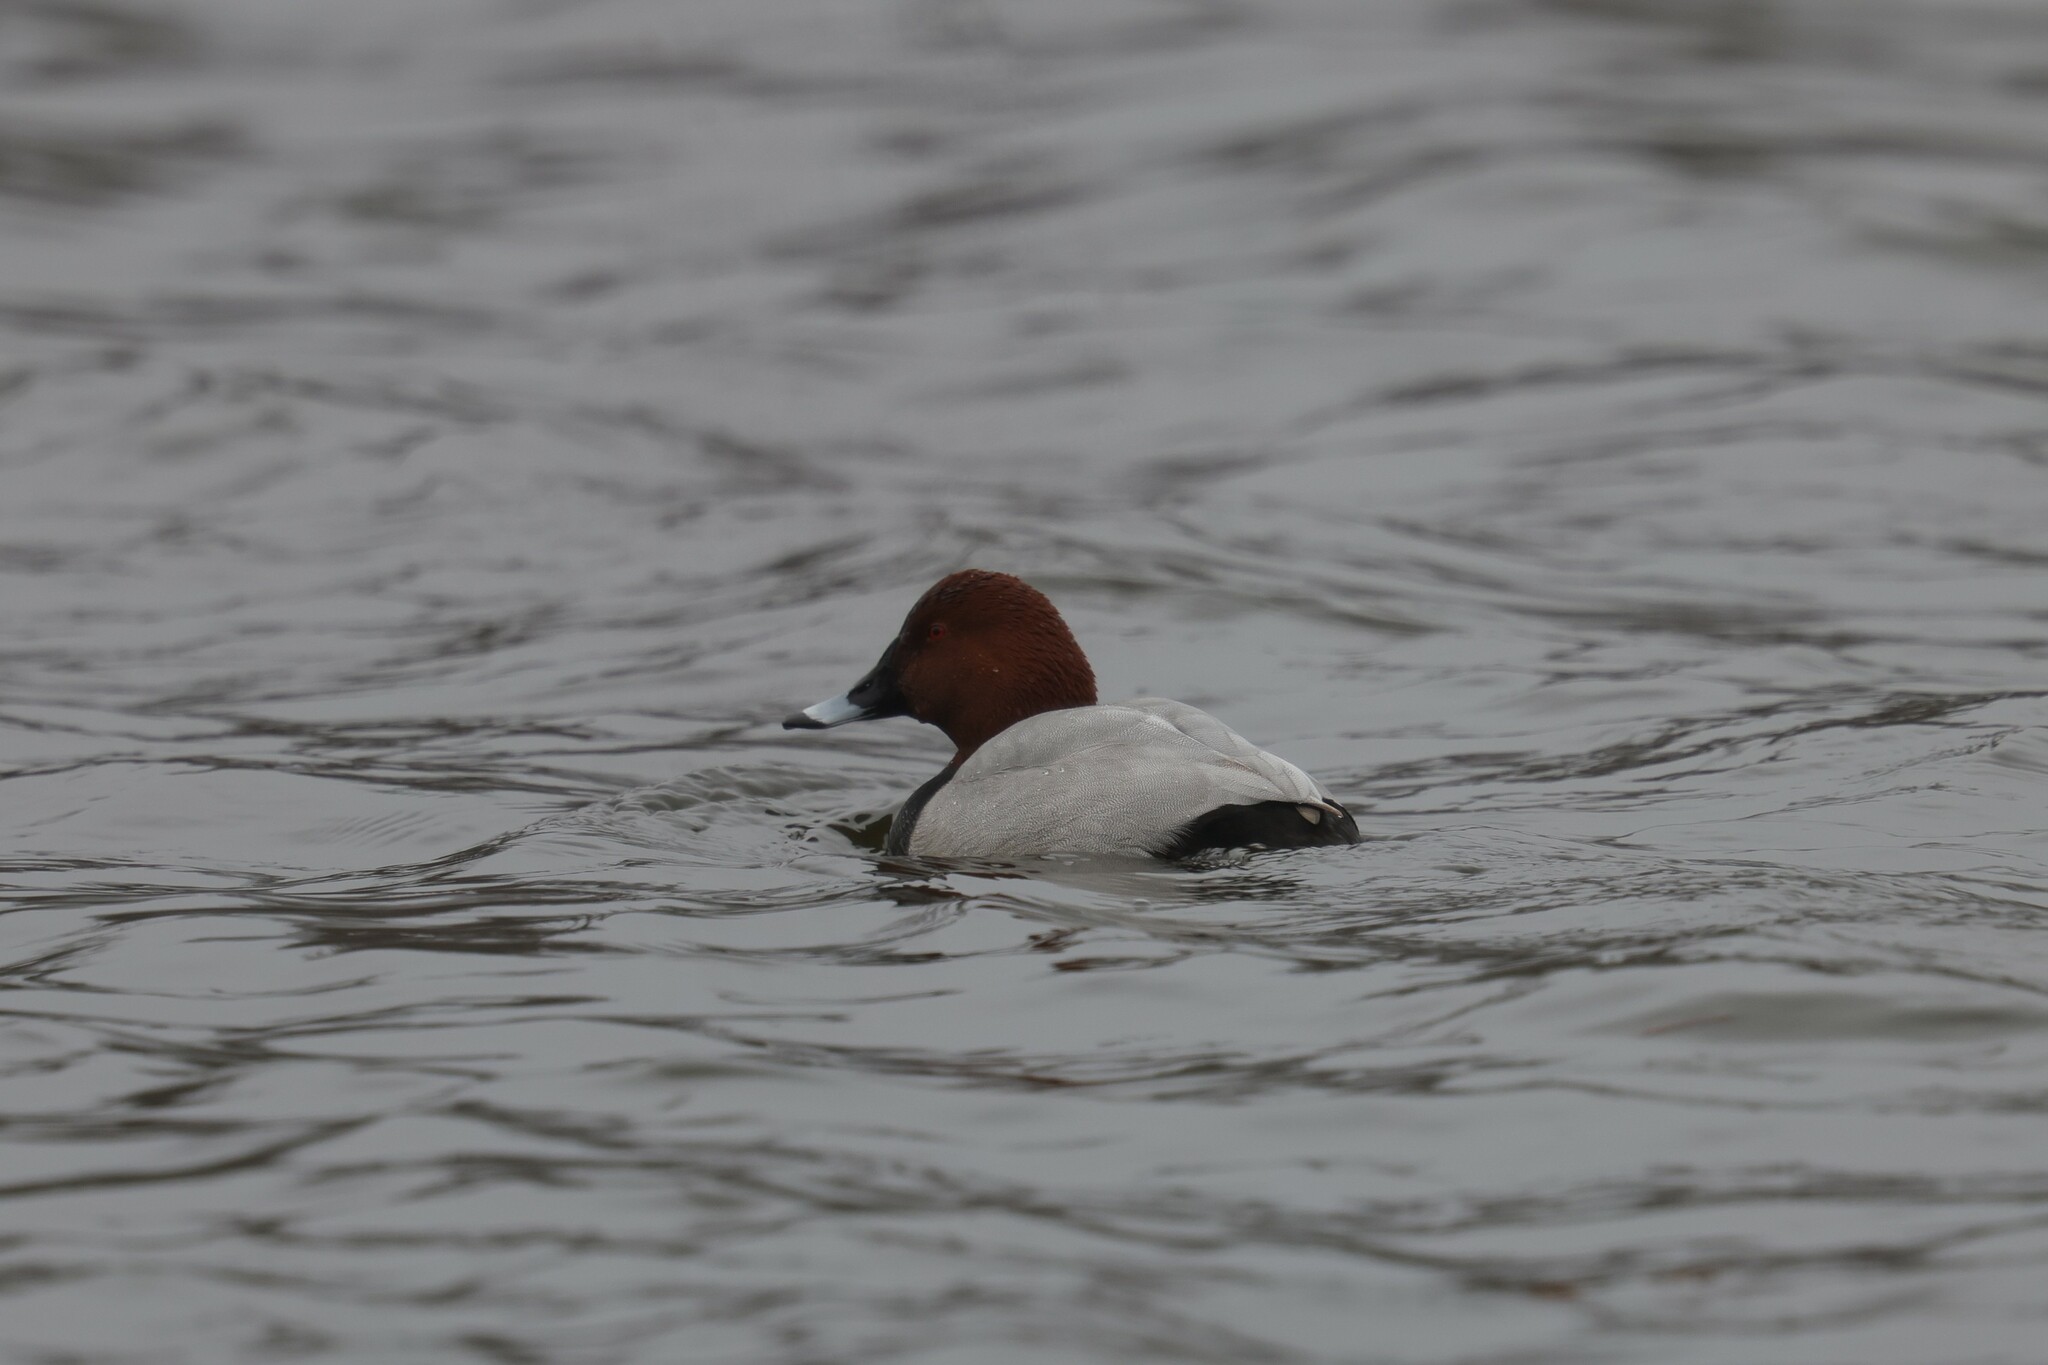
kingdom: Animalia
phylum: Chordata
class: Aves
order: Anseriformes
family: Anatidae
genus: Aythya
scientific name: Aythya ferina
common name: Common pochard
